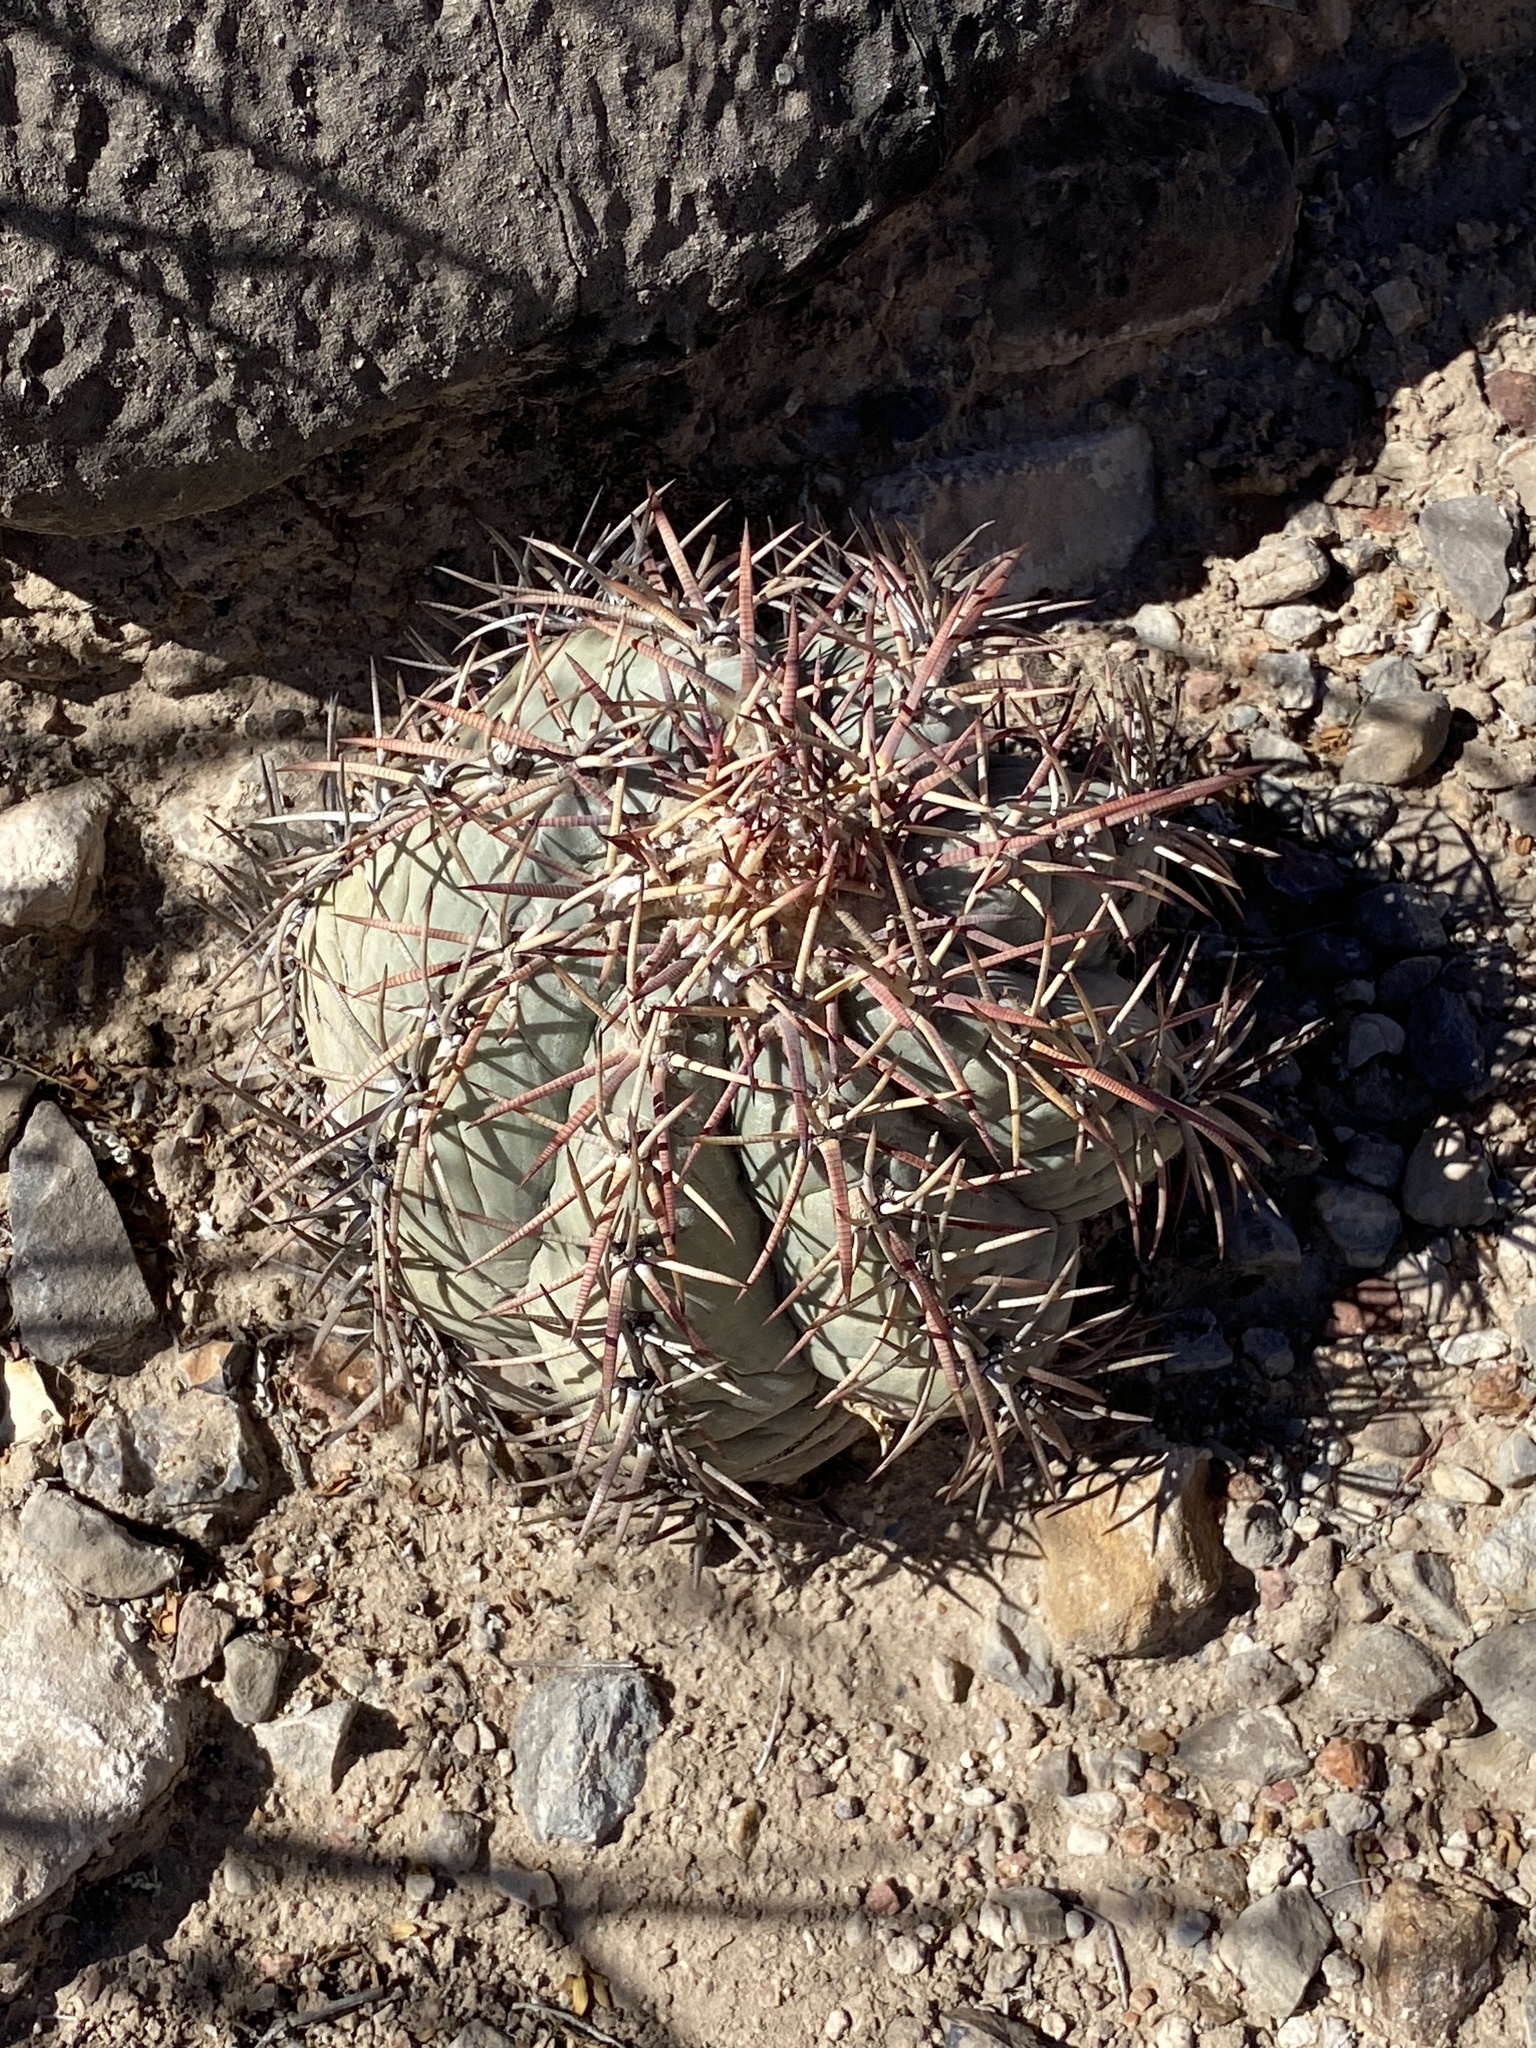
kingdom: Plantae
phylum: Tracheophyta
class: Magnoliopsida
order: Caryophyllales
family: Cactaceae
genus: Echinocactus
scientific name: Echinocactus horizonthalonius
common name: Devilshead
